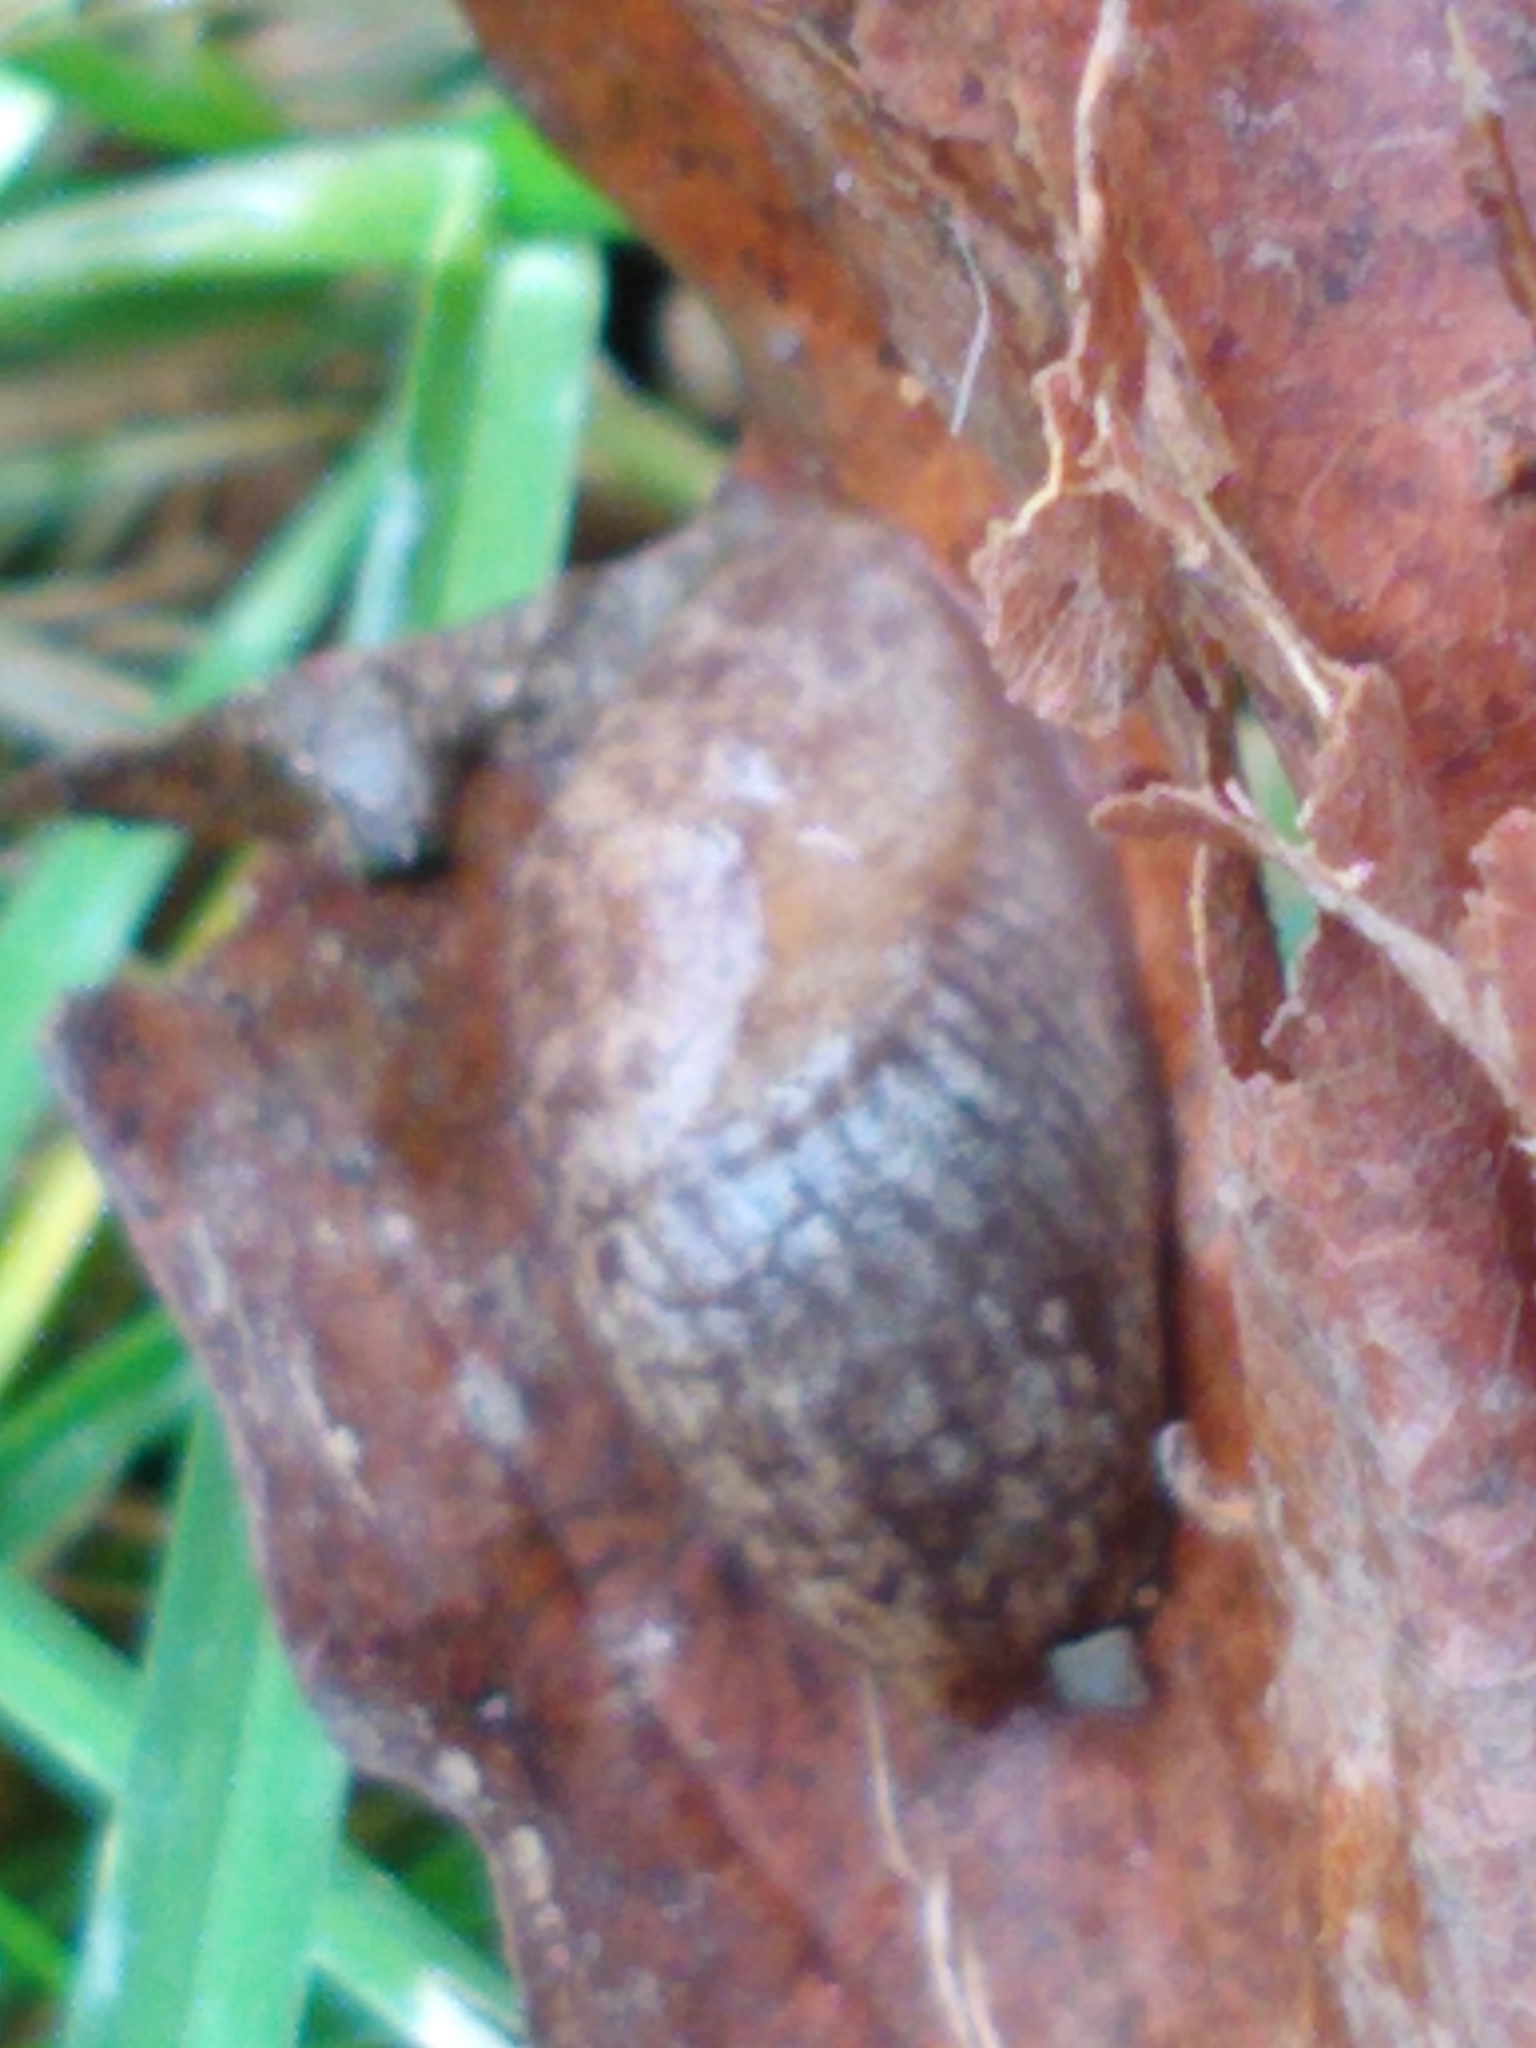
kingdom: Animalia
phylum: Mollusca
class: Gastropoda
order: Stylommatophora
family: Agriolimacidae
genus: Deroceras
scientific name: Deroceras reticulatum
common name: Gray field slug
